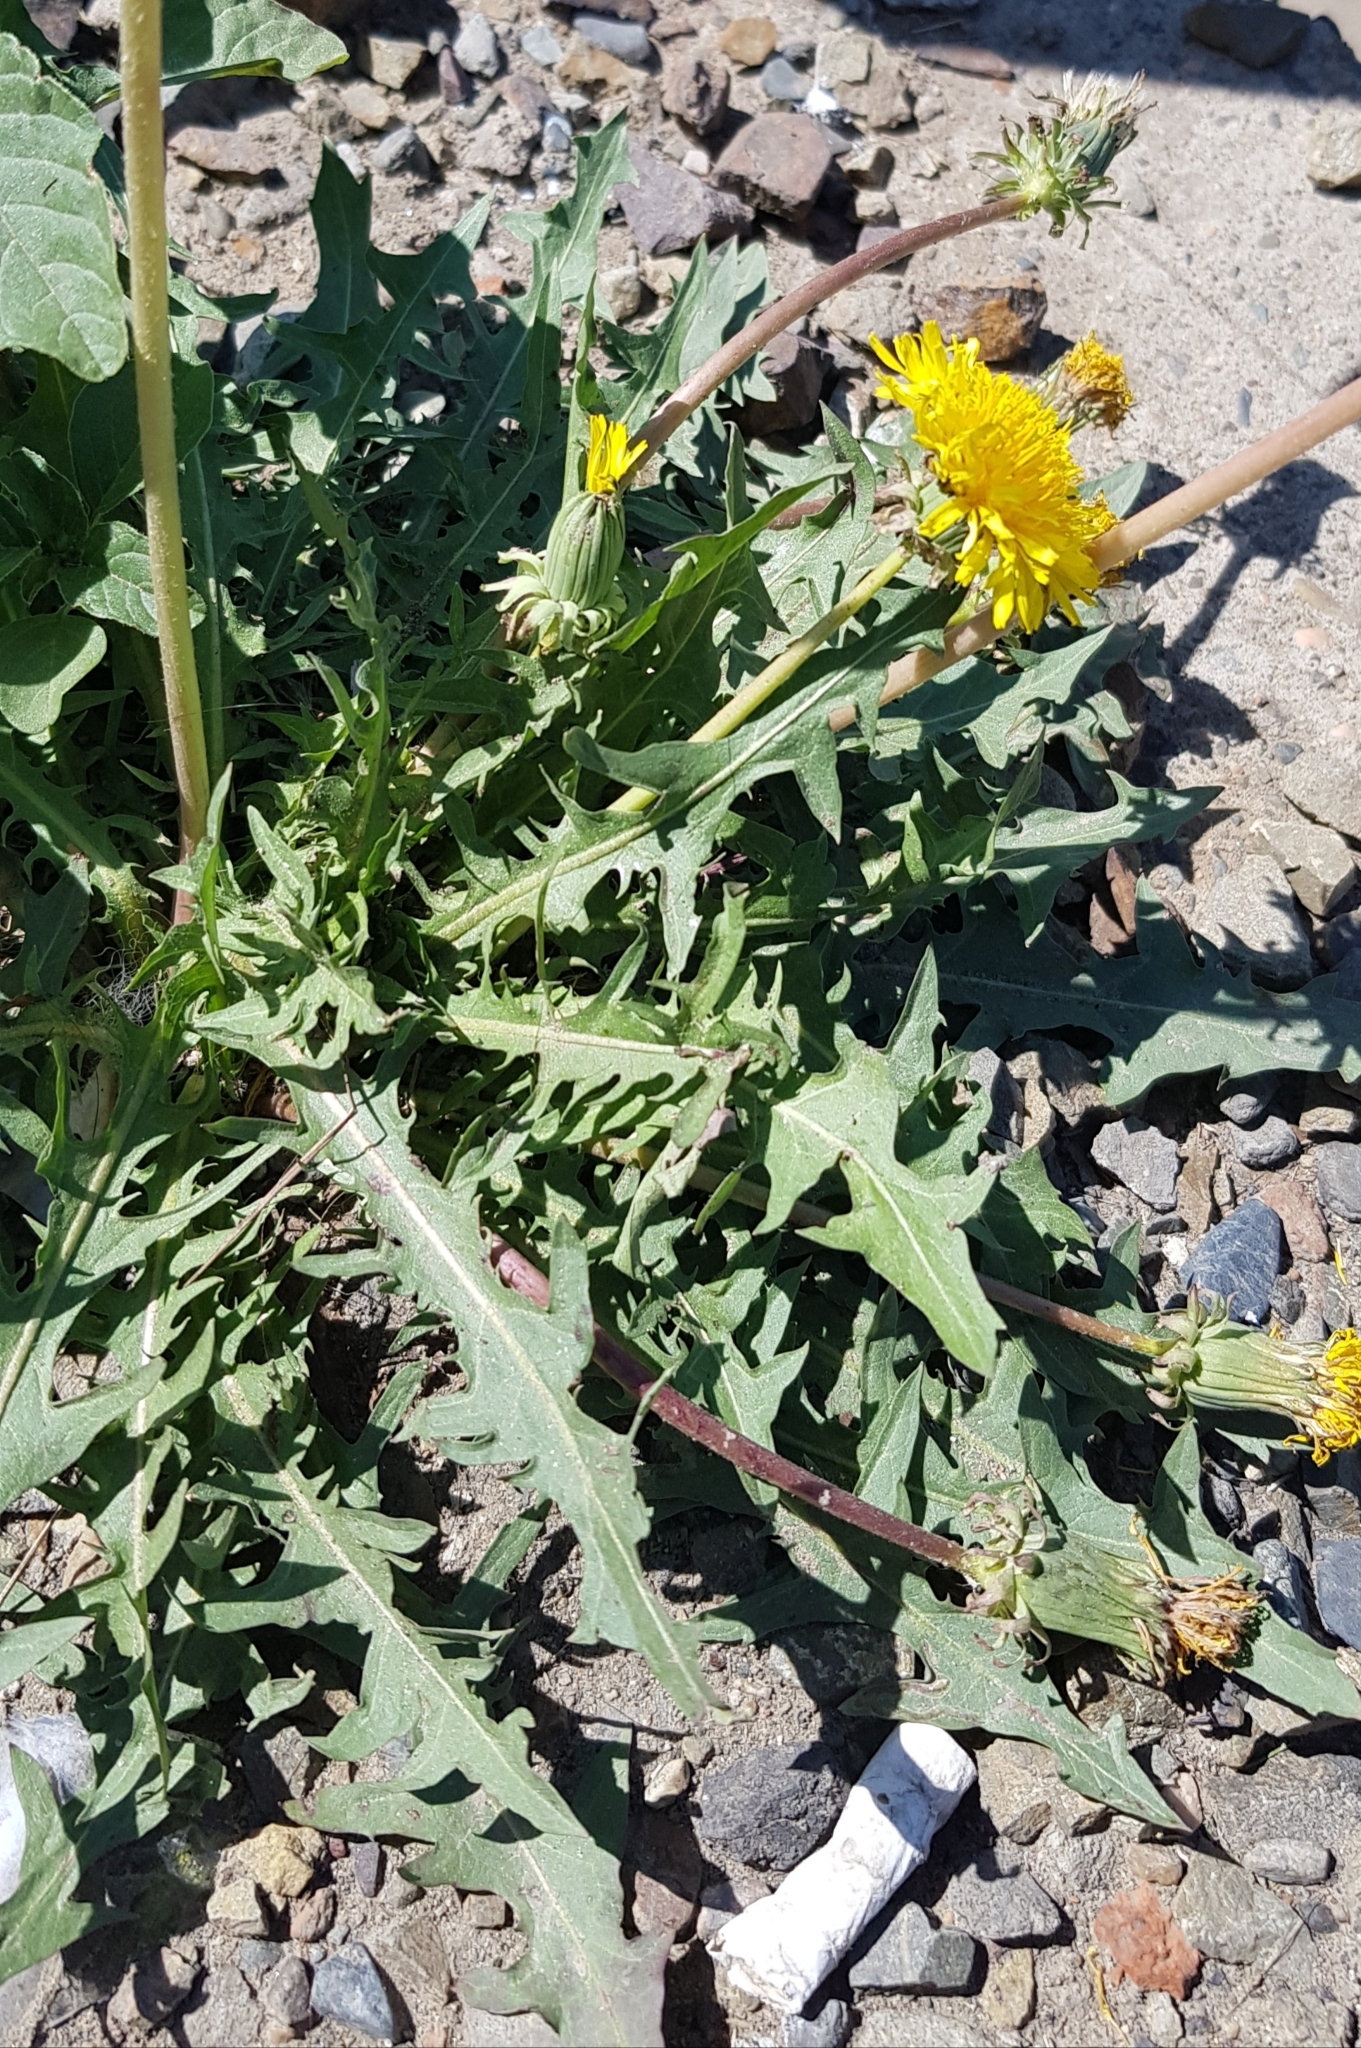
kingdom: Plantae
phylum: Tracheophyta
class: Magnoliopsida
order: Asterales
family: Asteraceae
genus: Taraxacum
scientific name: Taraxacum officinale
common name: Common dandelion
